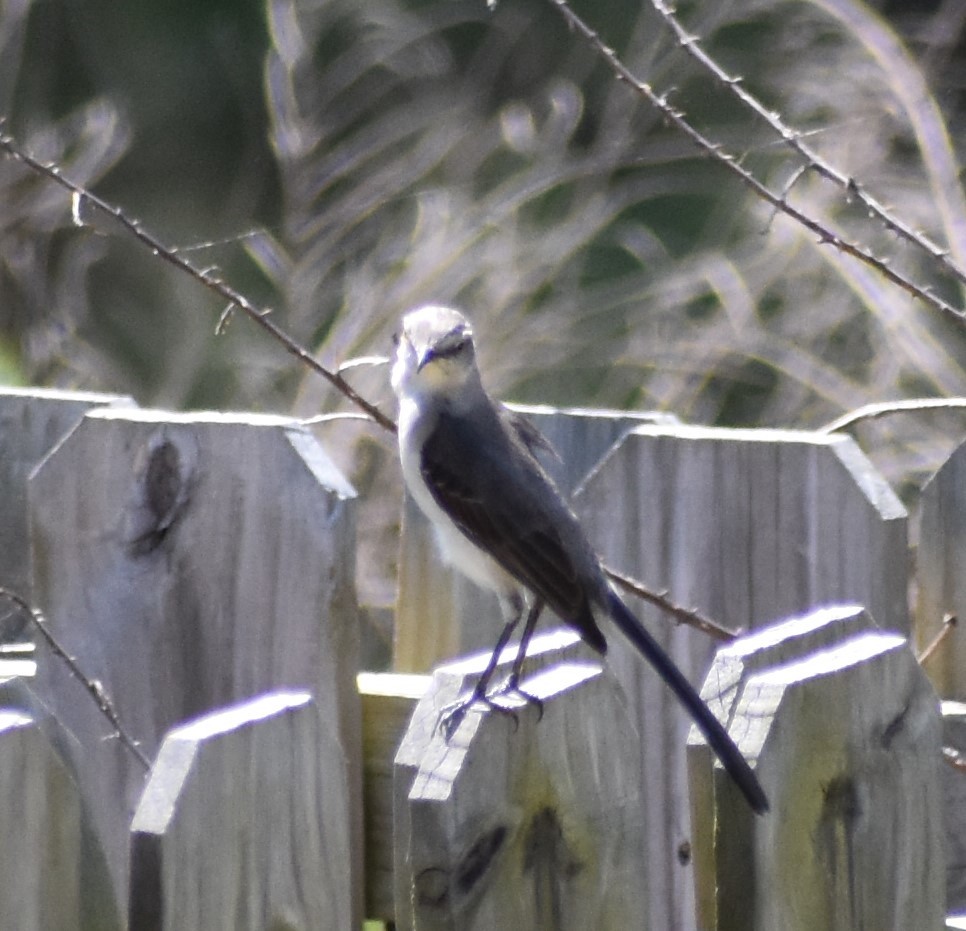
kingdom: Animalia
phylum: Chordata
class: Aves
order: Passeriformes
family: Mimidae
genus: Mimus
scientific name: Mimus polyglottos
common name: Northern mockingbird
